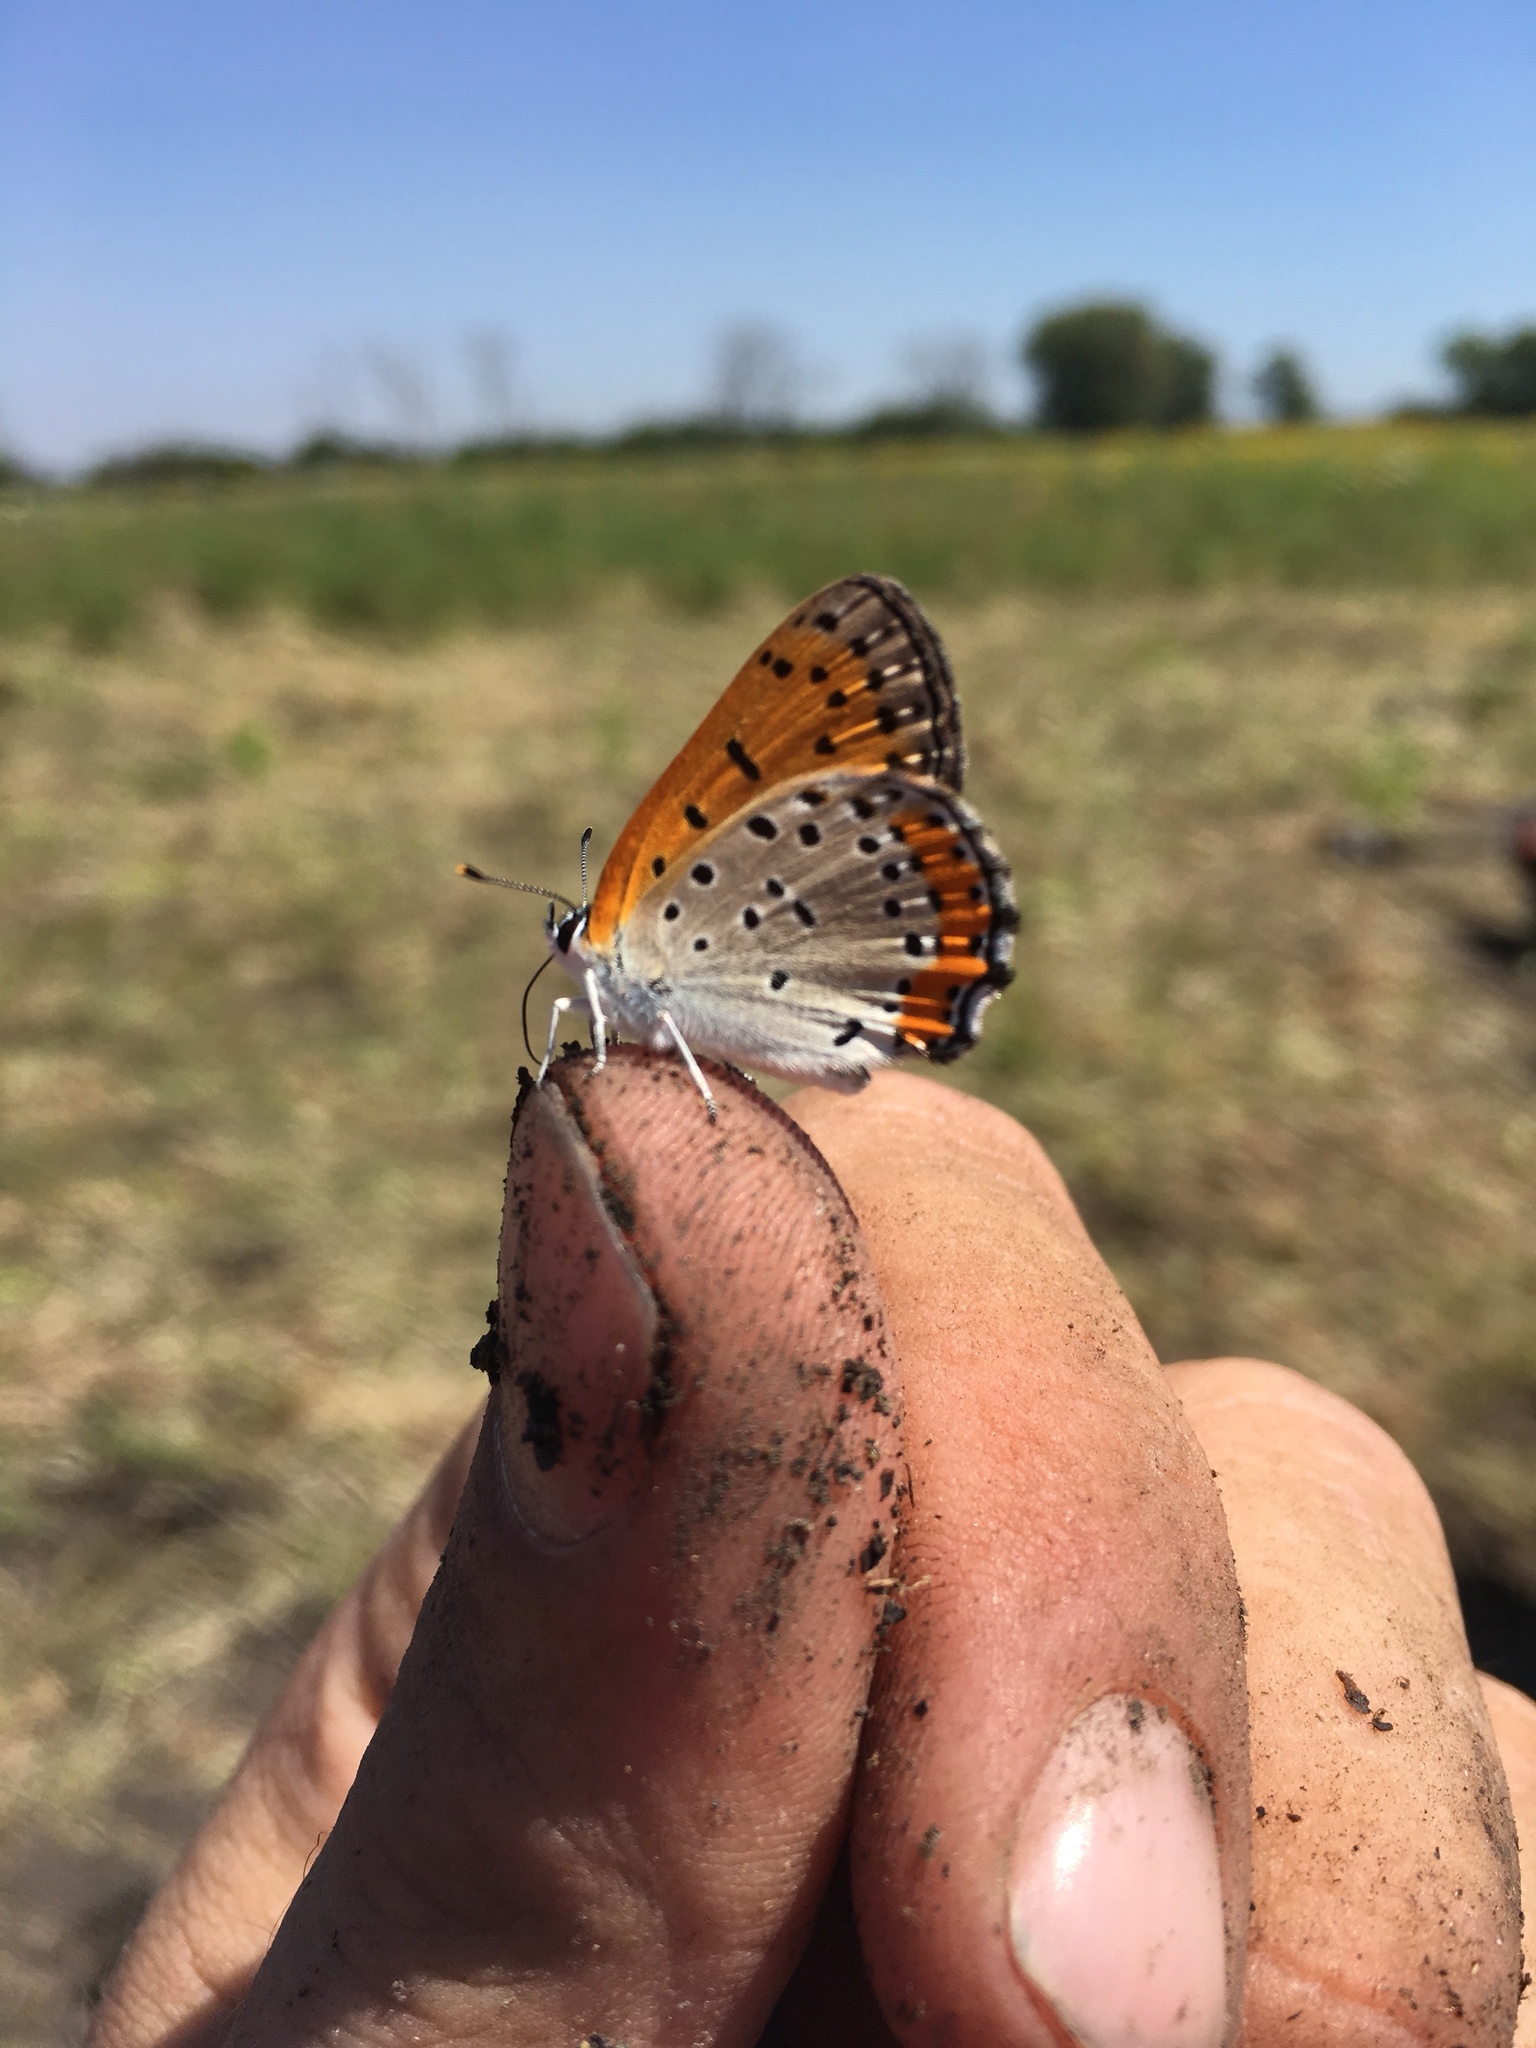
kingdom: Animalia
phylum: Arthropoda
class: Insecta
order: Lepidoptera
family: Lycaenidae
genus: Tharsalea
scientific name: Tharsalea hyllus
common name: Bronze copper
